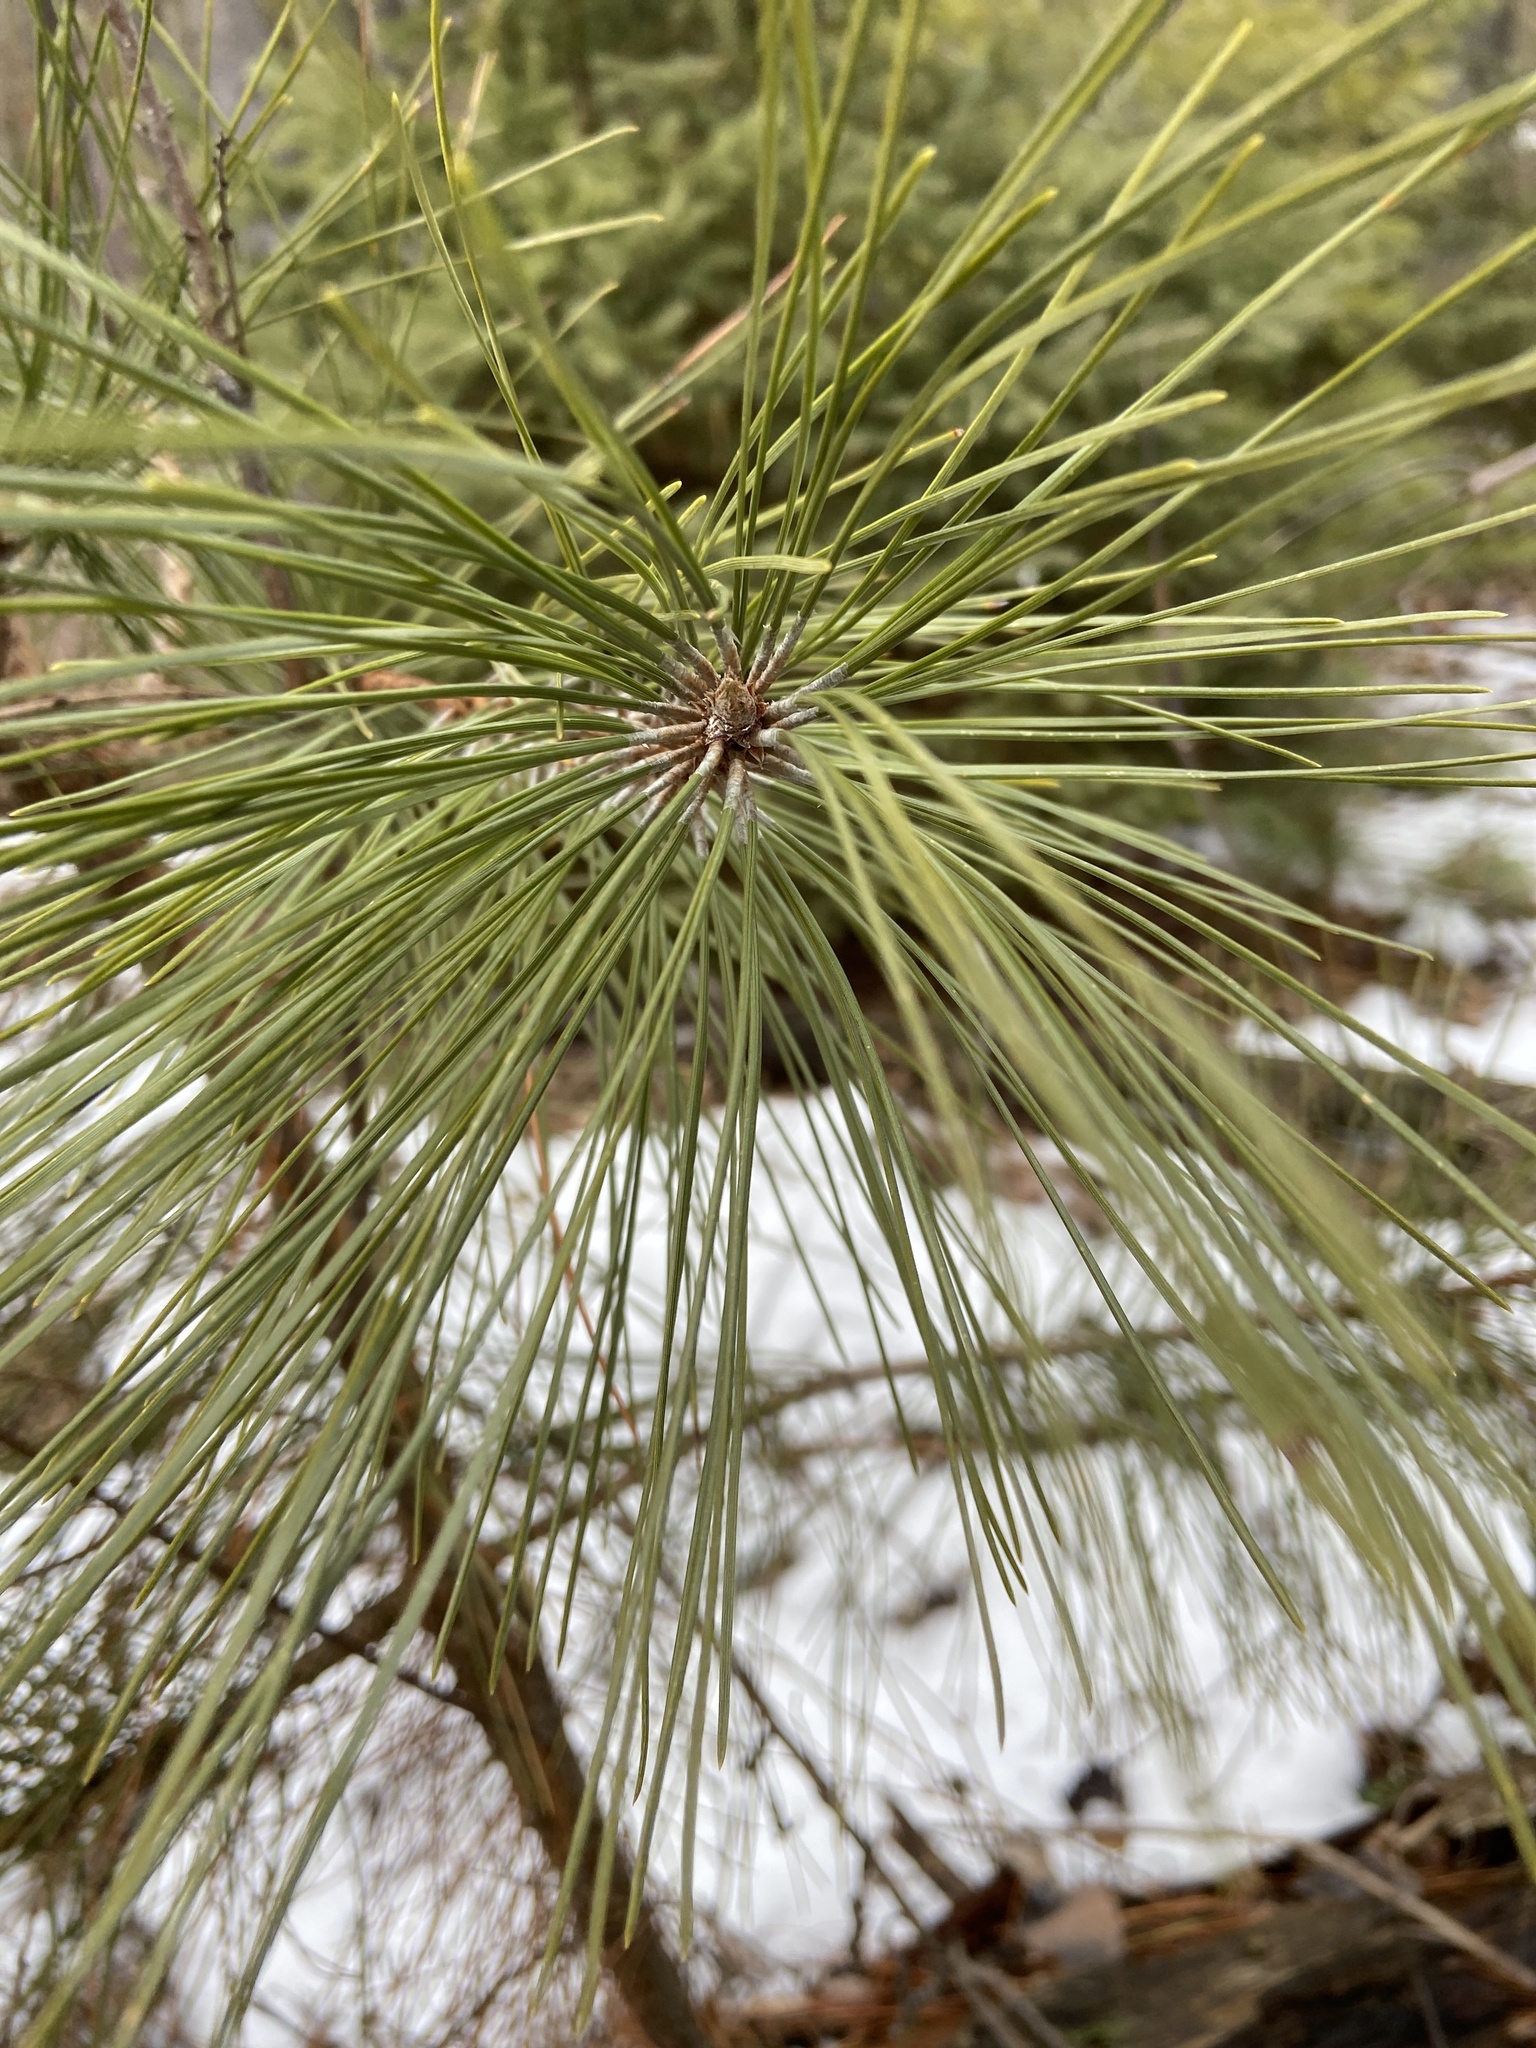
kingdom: Plantae
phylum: Tracheophyta
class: Pinopsida
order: Pinales
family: Pinaceae
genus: Pinus
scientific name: Pinus resinosa
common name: Norway pine
